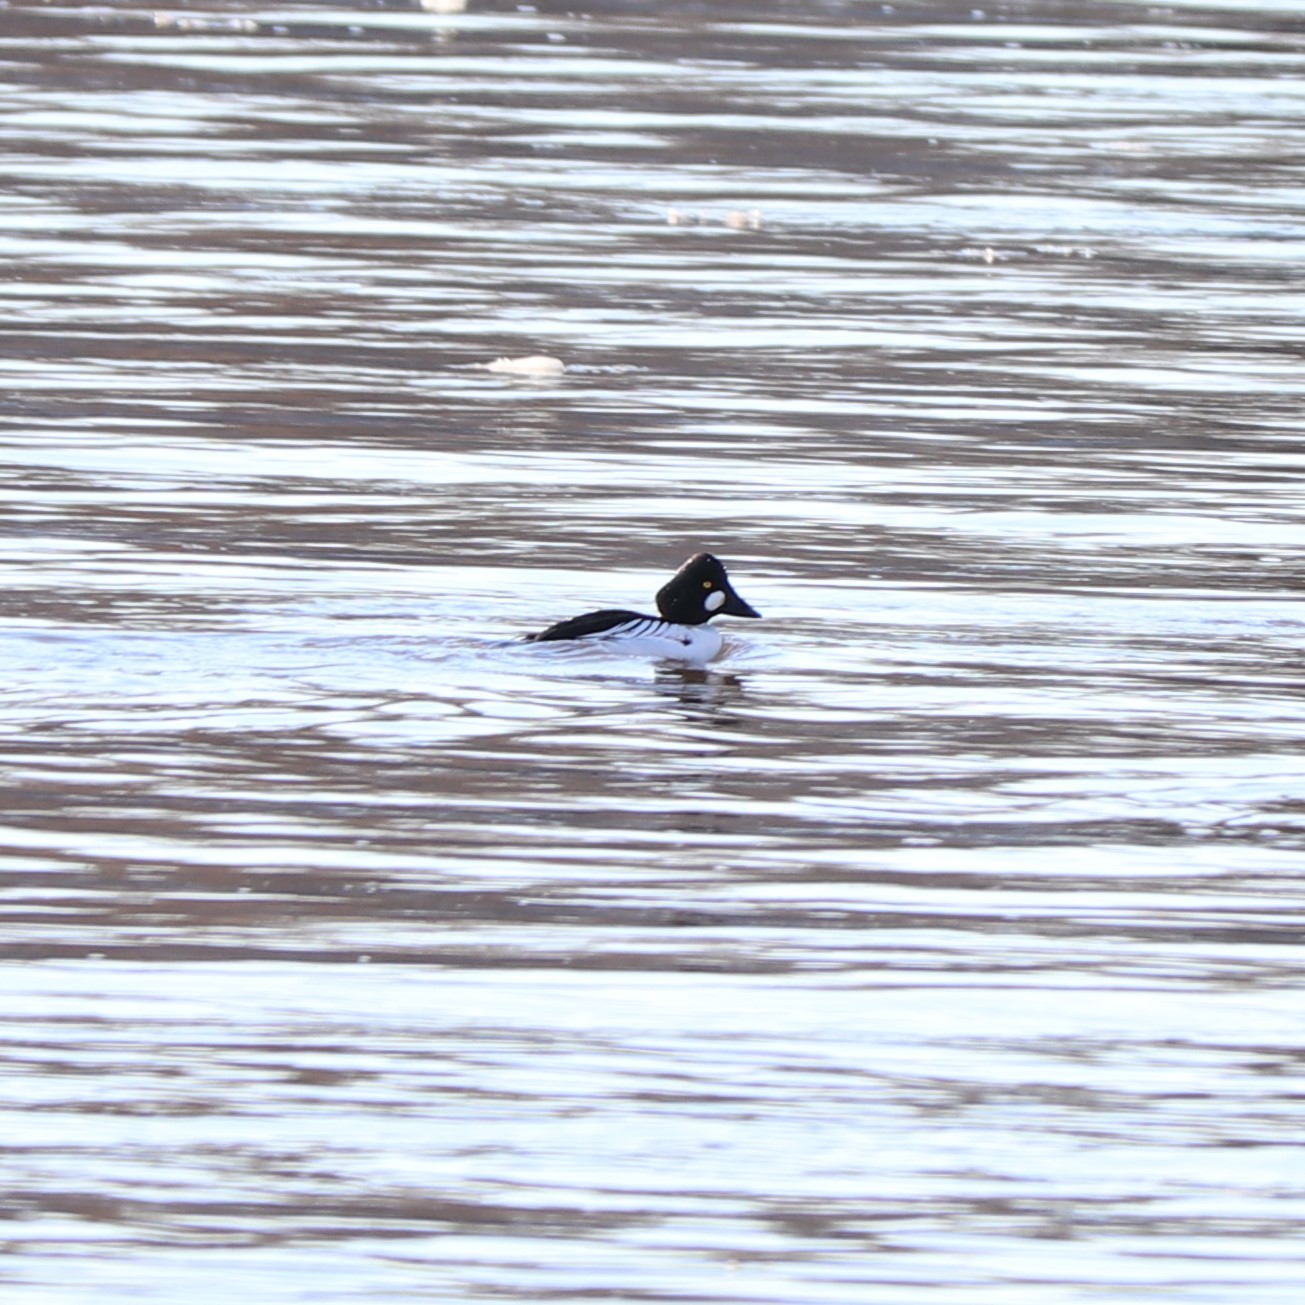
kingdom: Animalia
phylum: Chordata
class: Aves
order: Anseriformes
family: Anatidae
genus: Bucephala
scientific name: Bucephala clangula
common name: Common goldeneye
